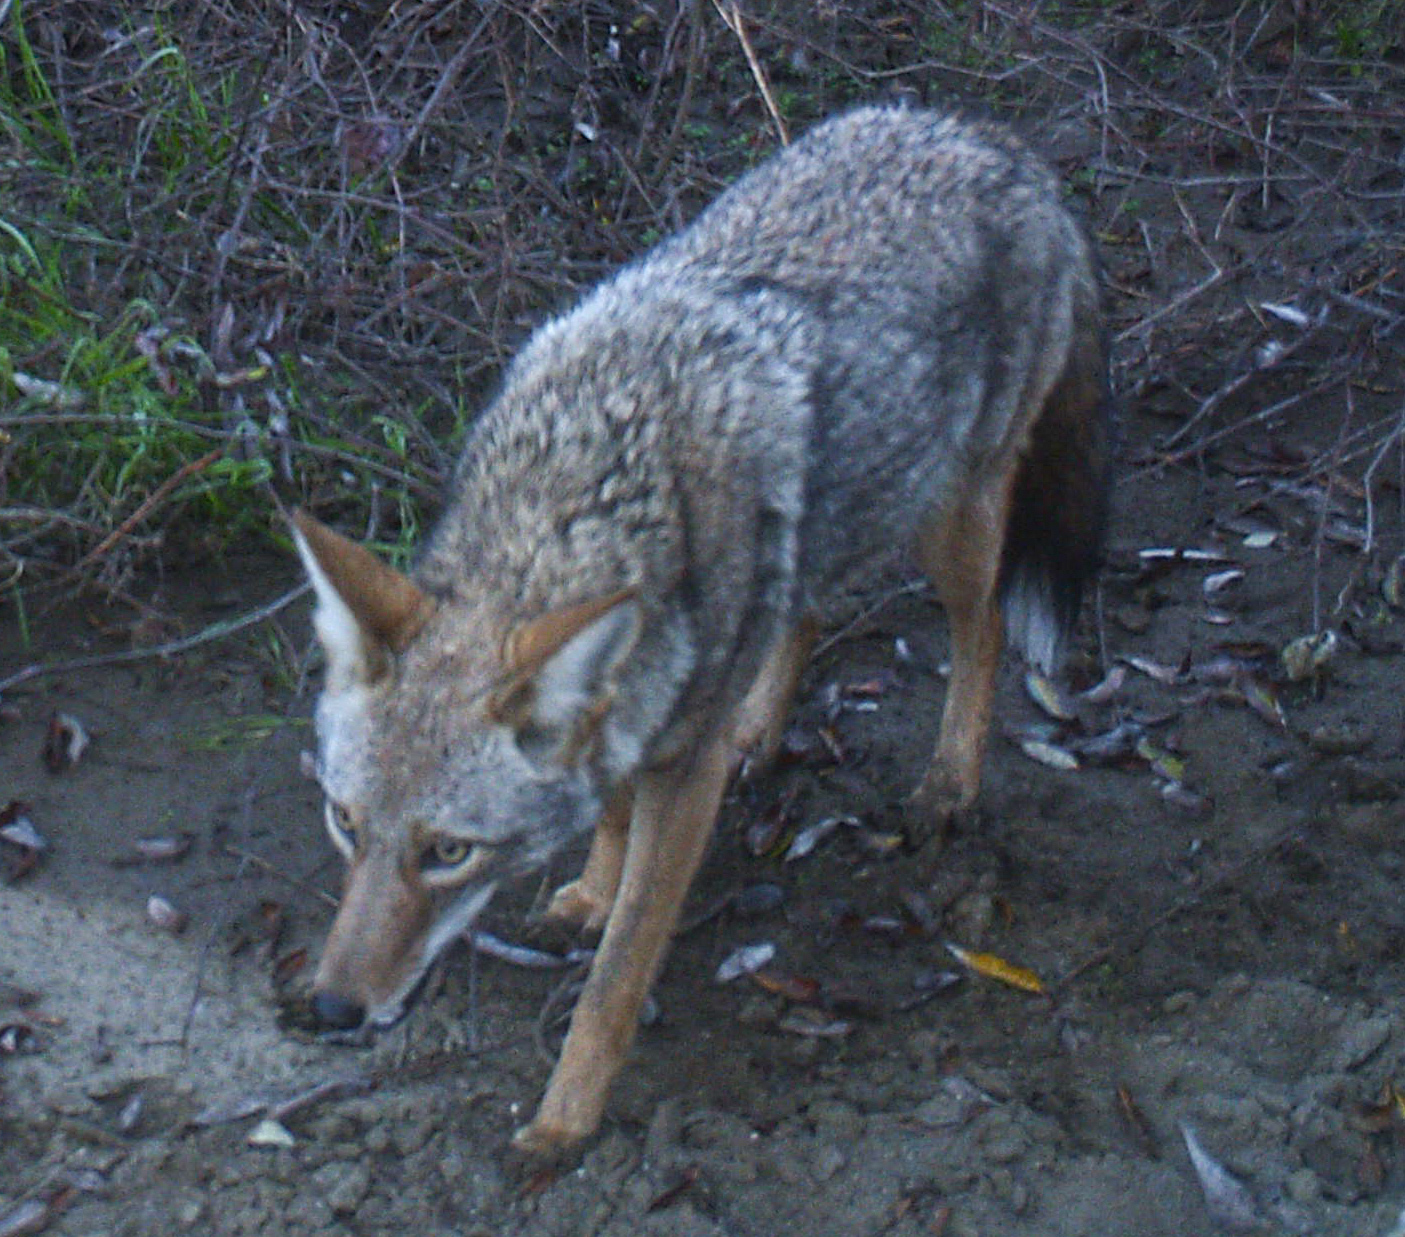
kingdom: Animalia
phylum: Chordata
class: Mammalia
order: Carnivora
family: Canidae
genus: Canis
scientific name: Canis latrans
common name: Coyote
